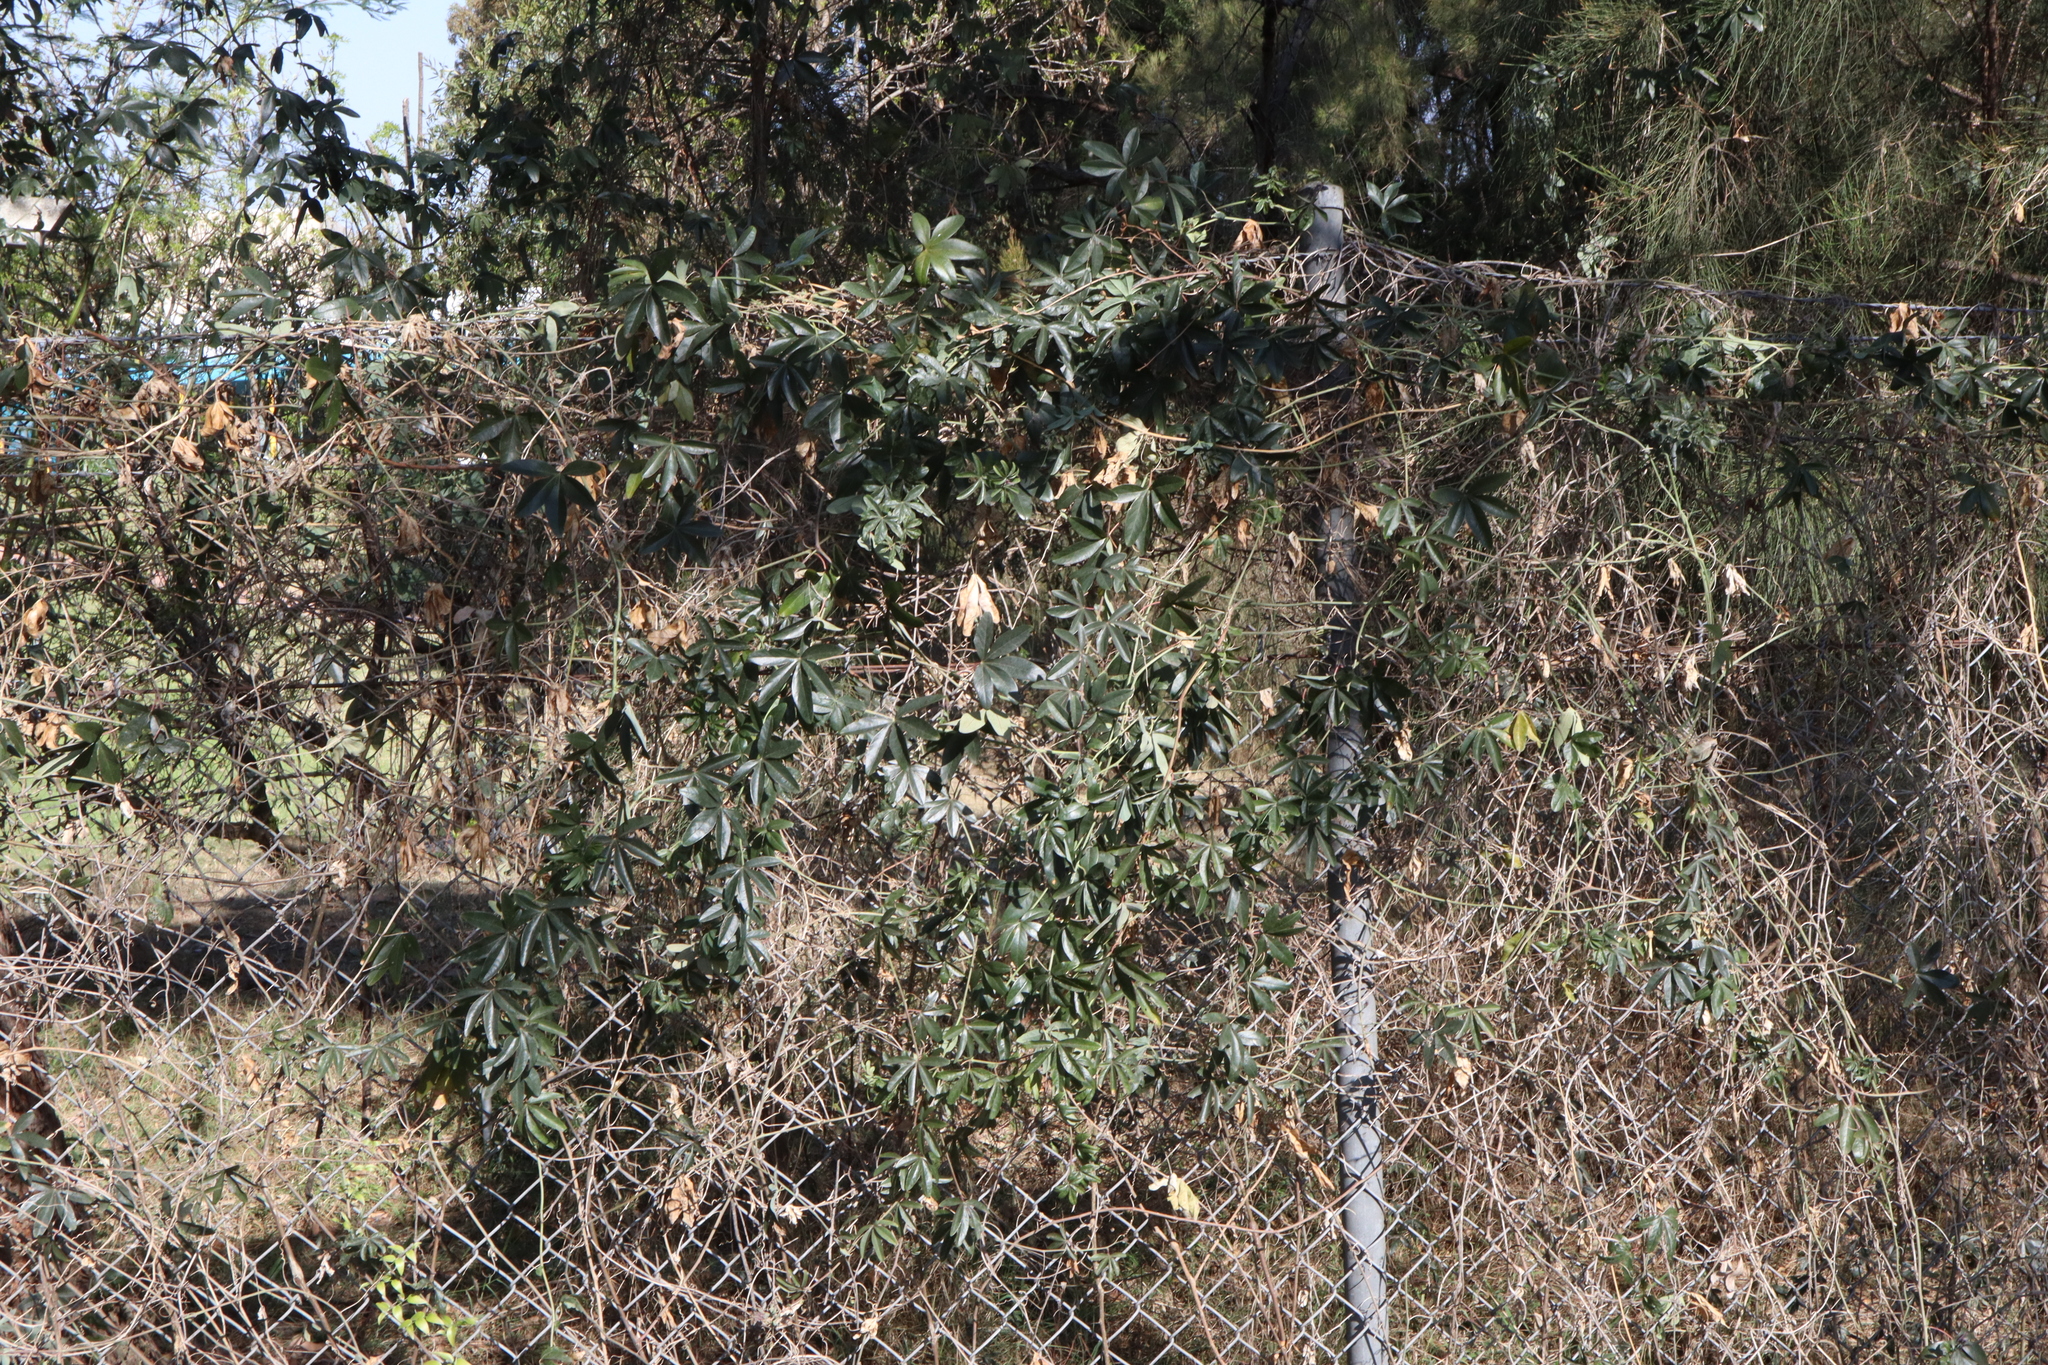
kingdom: Plantae
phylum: Tracheophyta
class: Magnoliopsida
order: Malpighiales
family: Passifloraceae
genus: Passiflora
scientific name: Passiflora caerulea
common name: Blue passionflower
